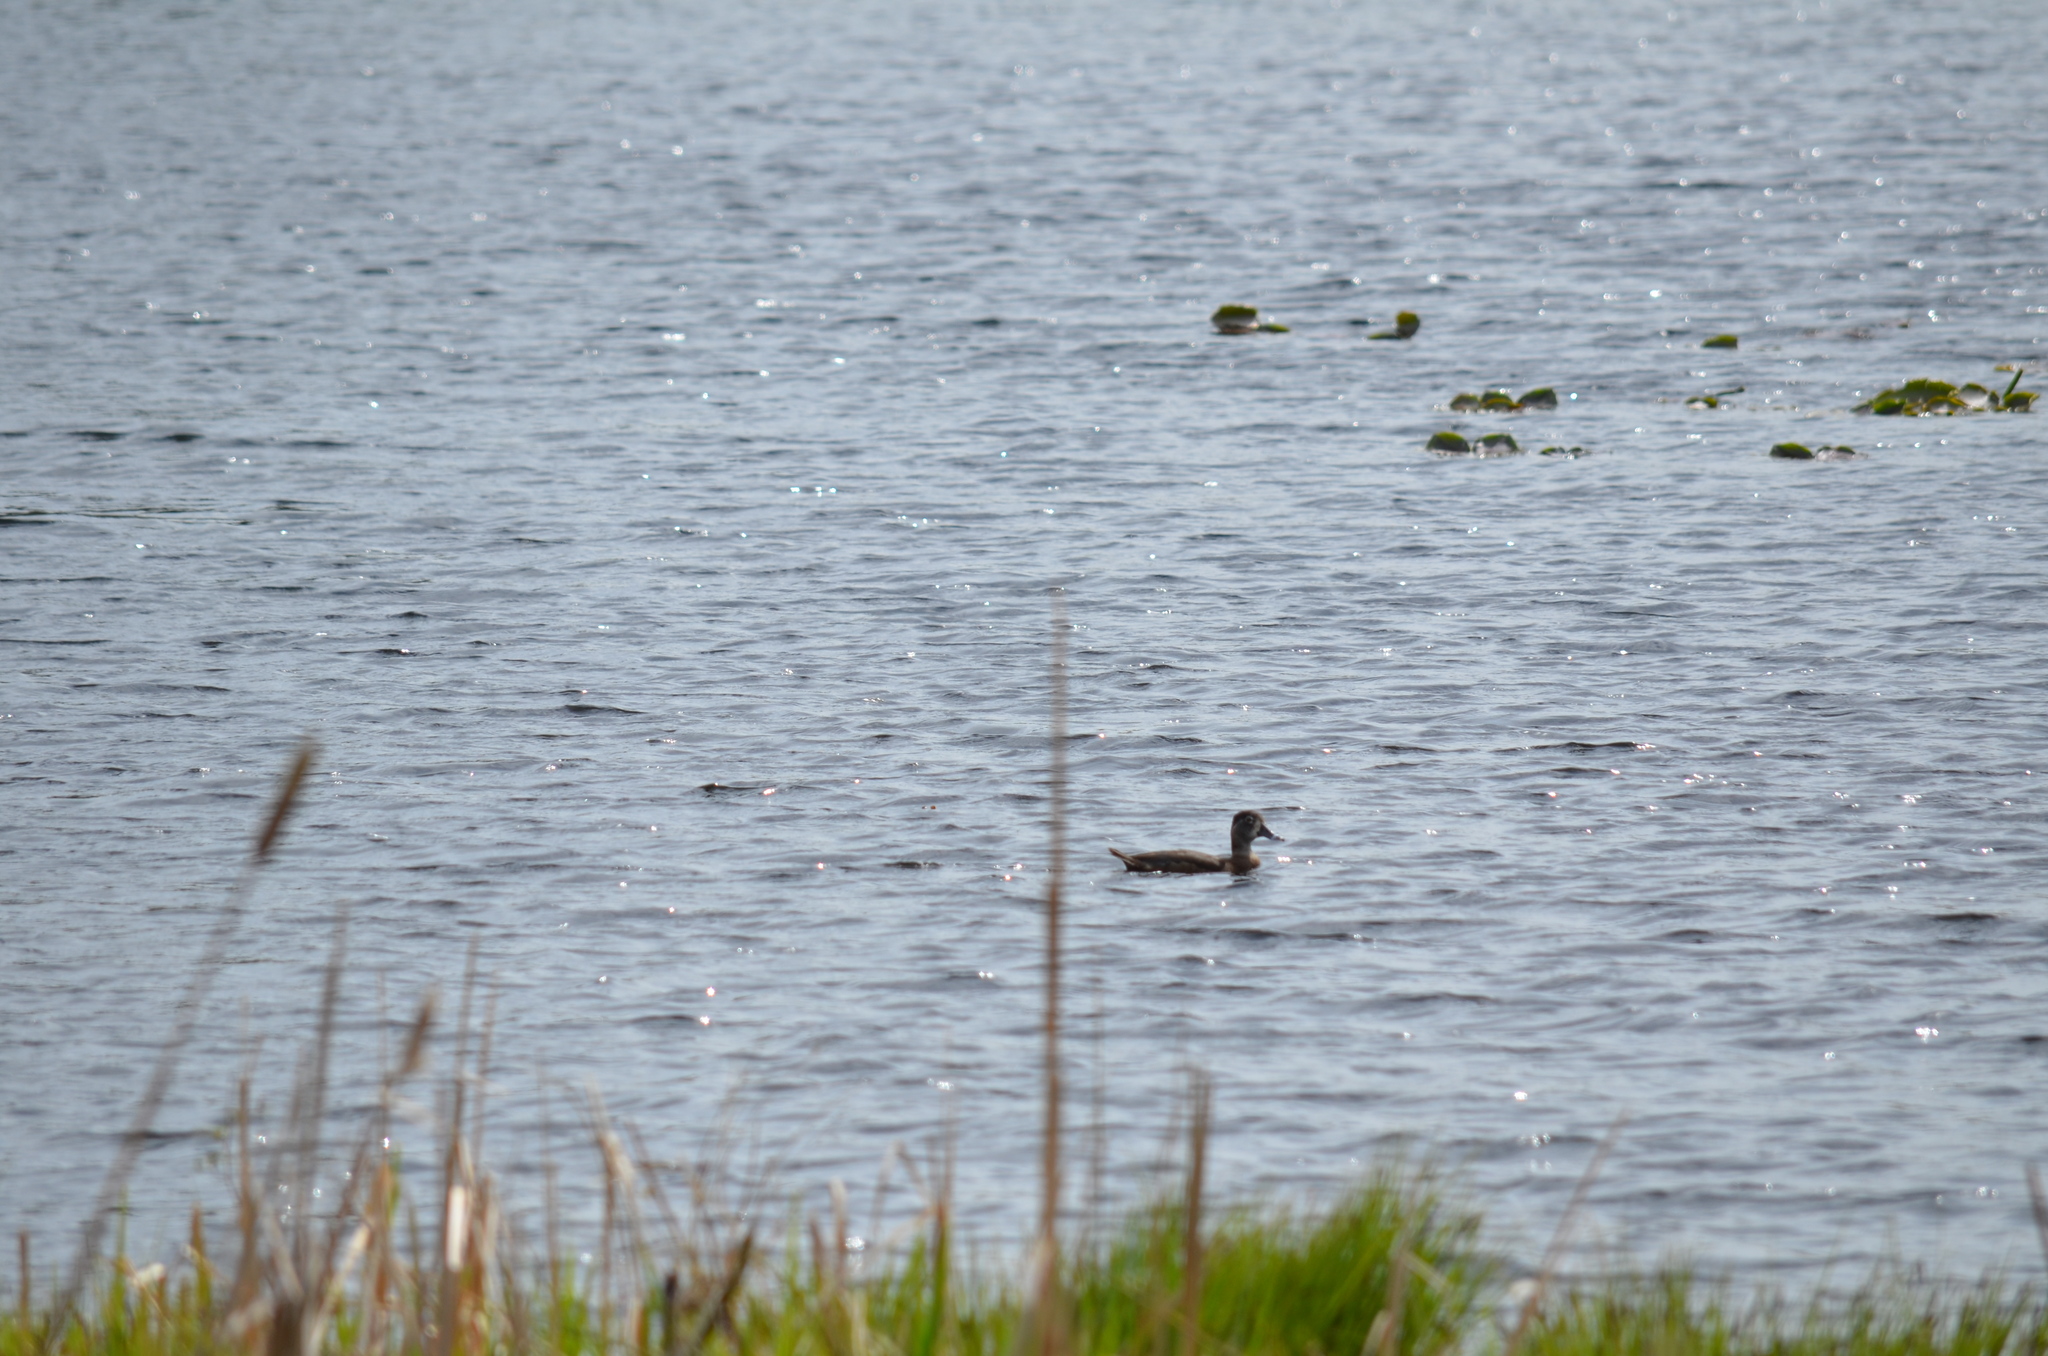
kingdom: Animalia
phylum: Chordata
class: Aves
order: Anseriformes
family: Anatidae
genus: Aythya
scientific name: Aythya collaris
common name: Ring-necked duck
